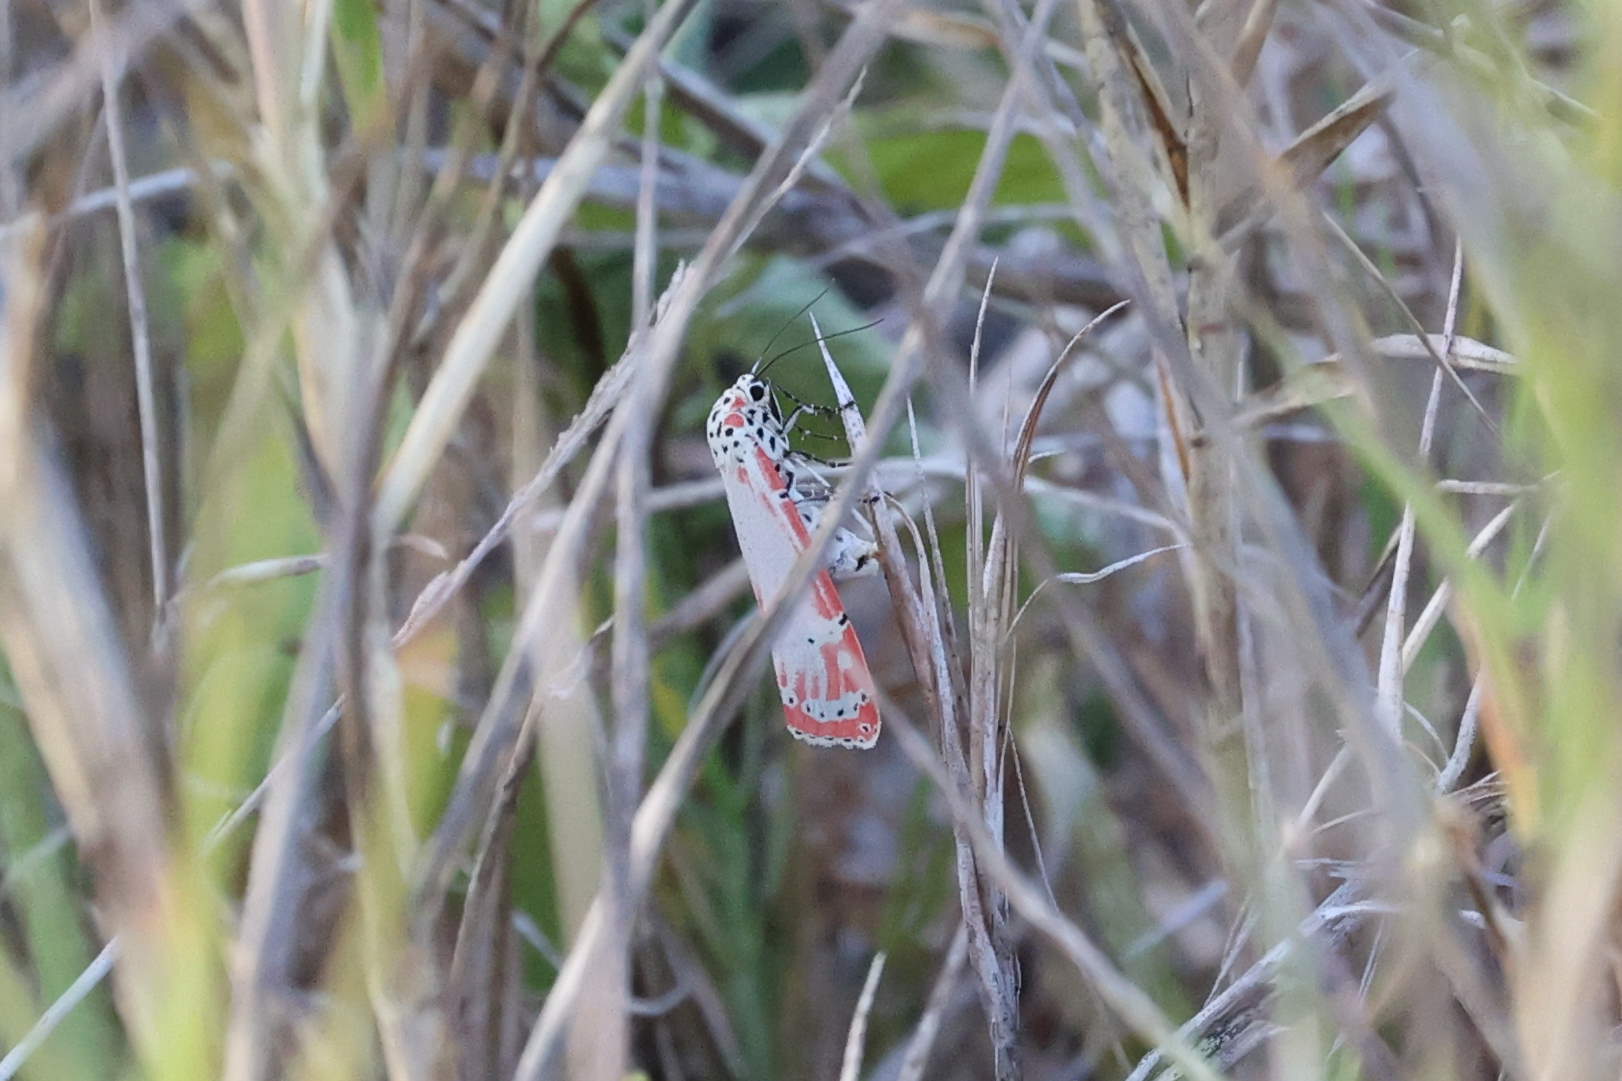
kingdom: Animalia
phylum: Arthropoda
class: Insecta
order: Lepidoptera
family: Erebidae
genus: Utetheisa
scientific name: Utetheisa ornatrix
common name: Beautiful utetheisa
